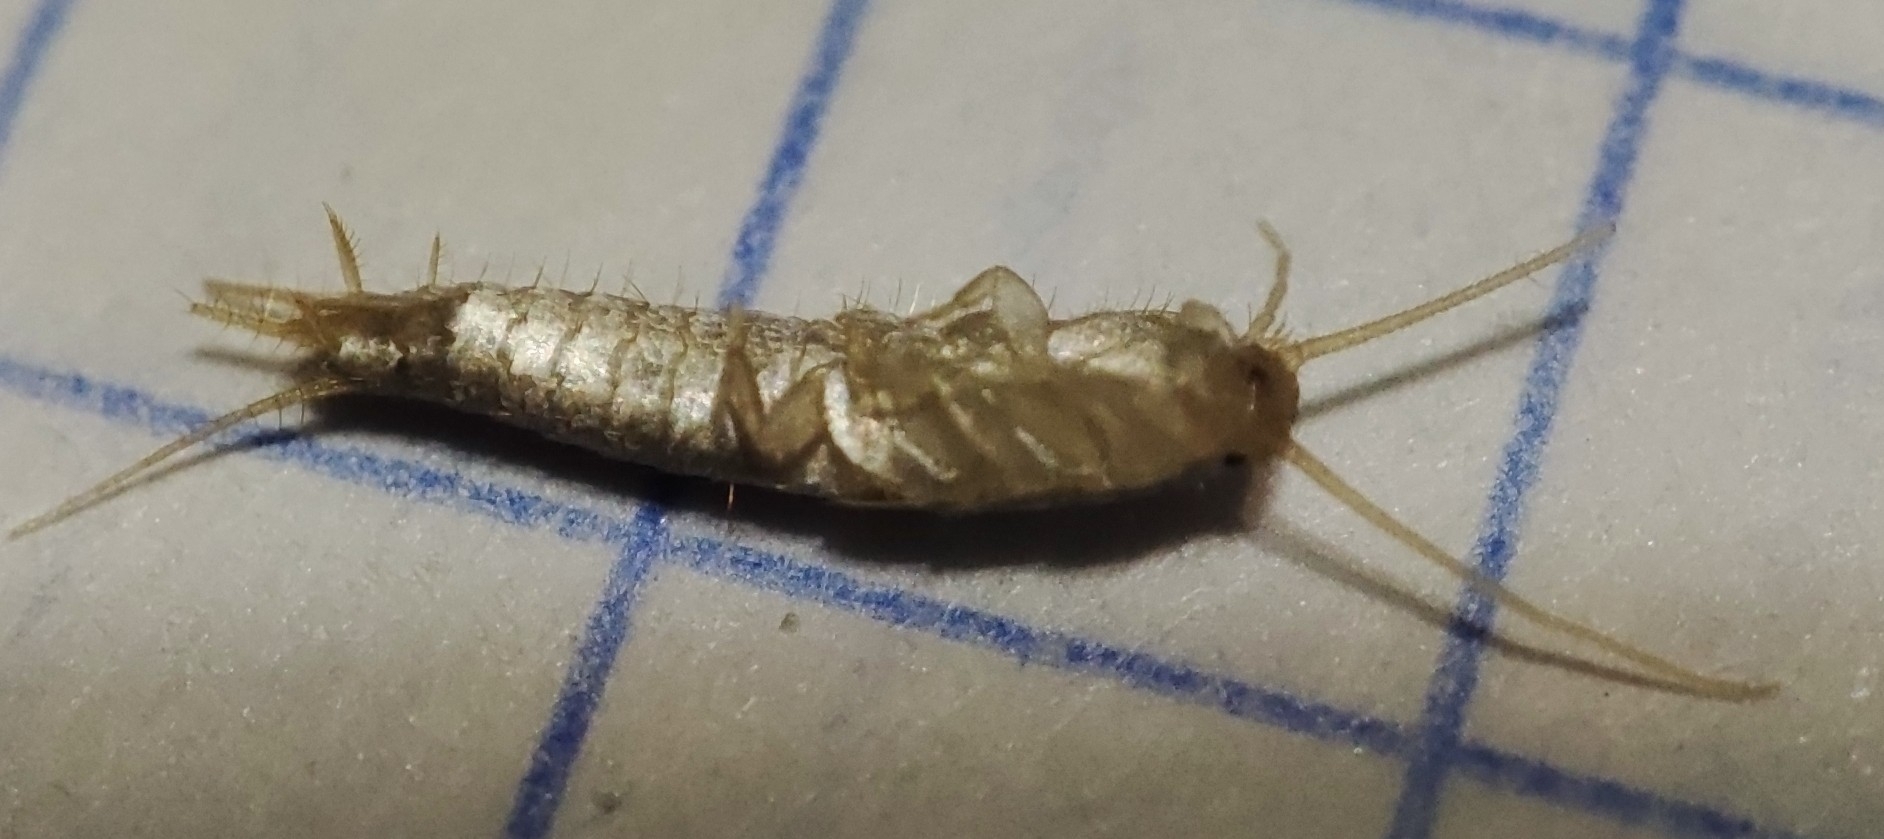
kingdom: Animalia
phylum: Arthropoda
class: Insecta
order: Zygentoma
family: Lepismatidae
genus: Lepisma
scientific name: Lepisma saccharinum
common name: Silverfish
